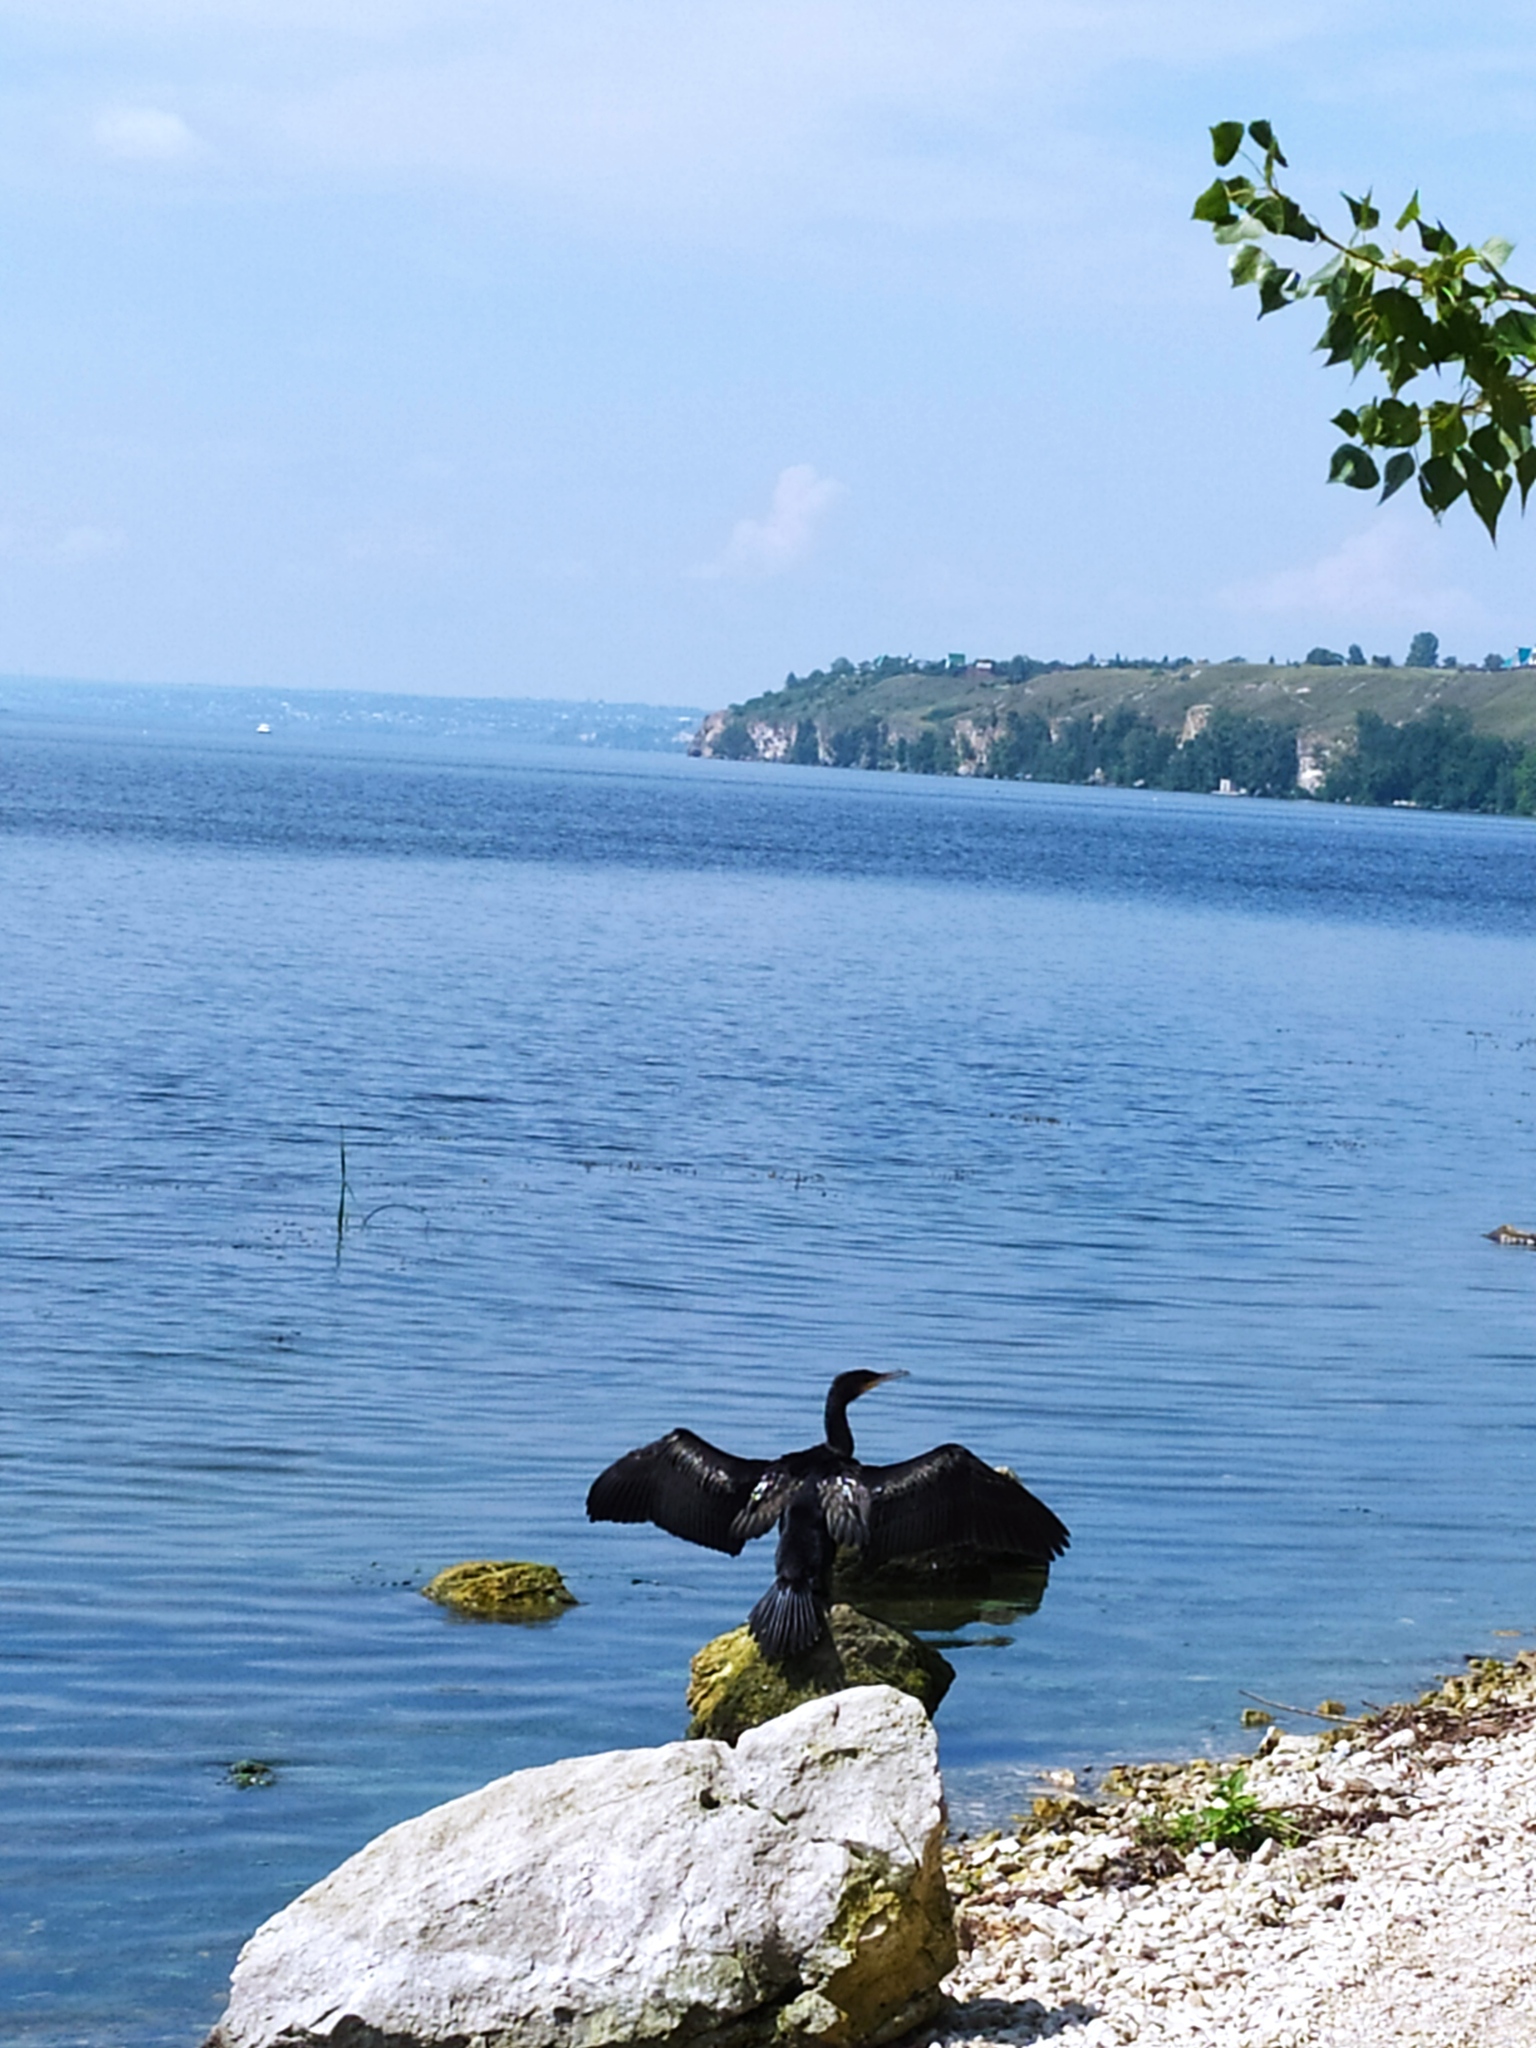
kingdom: Animalia
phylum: Chordata
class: Aves
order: Suliformes
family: Phalacrocoracidae
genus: Phalacrocorax
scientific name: Phalacrocorax carbo
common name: Great cormorant
